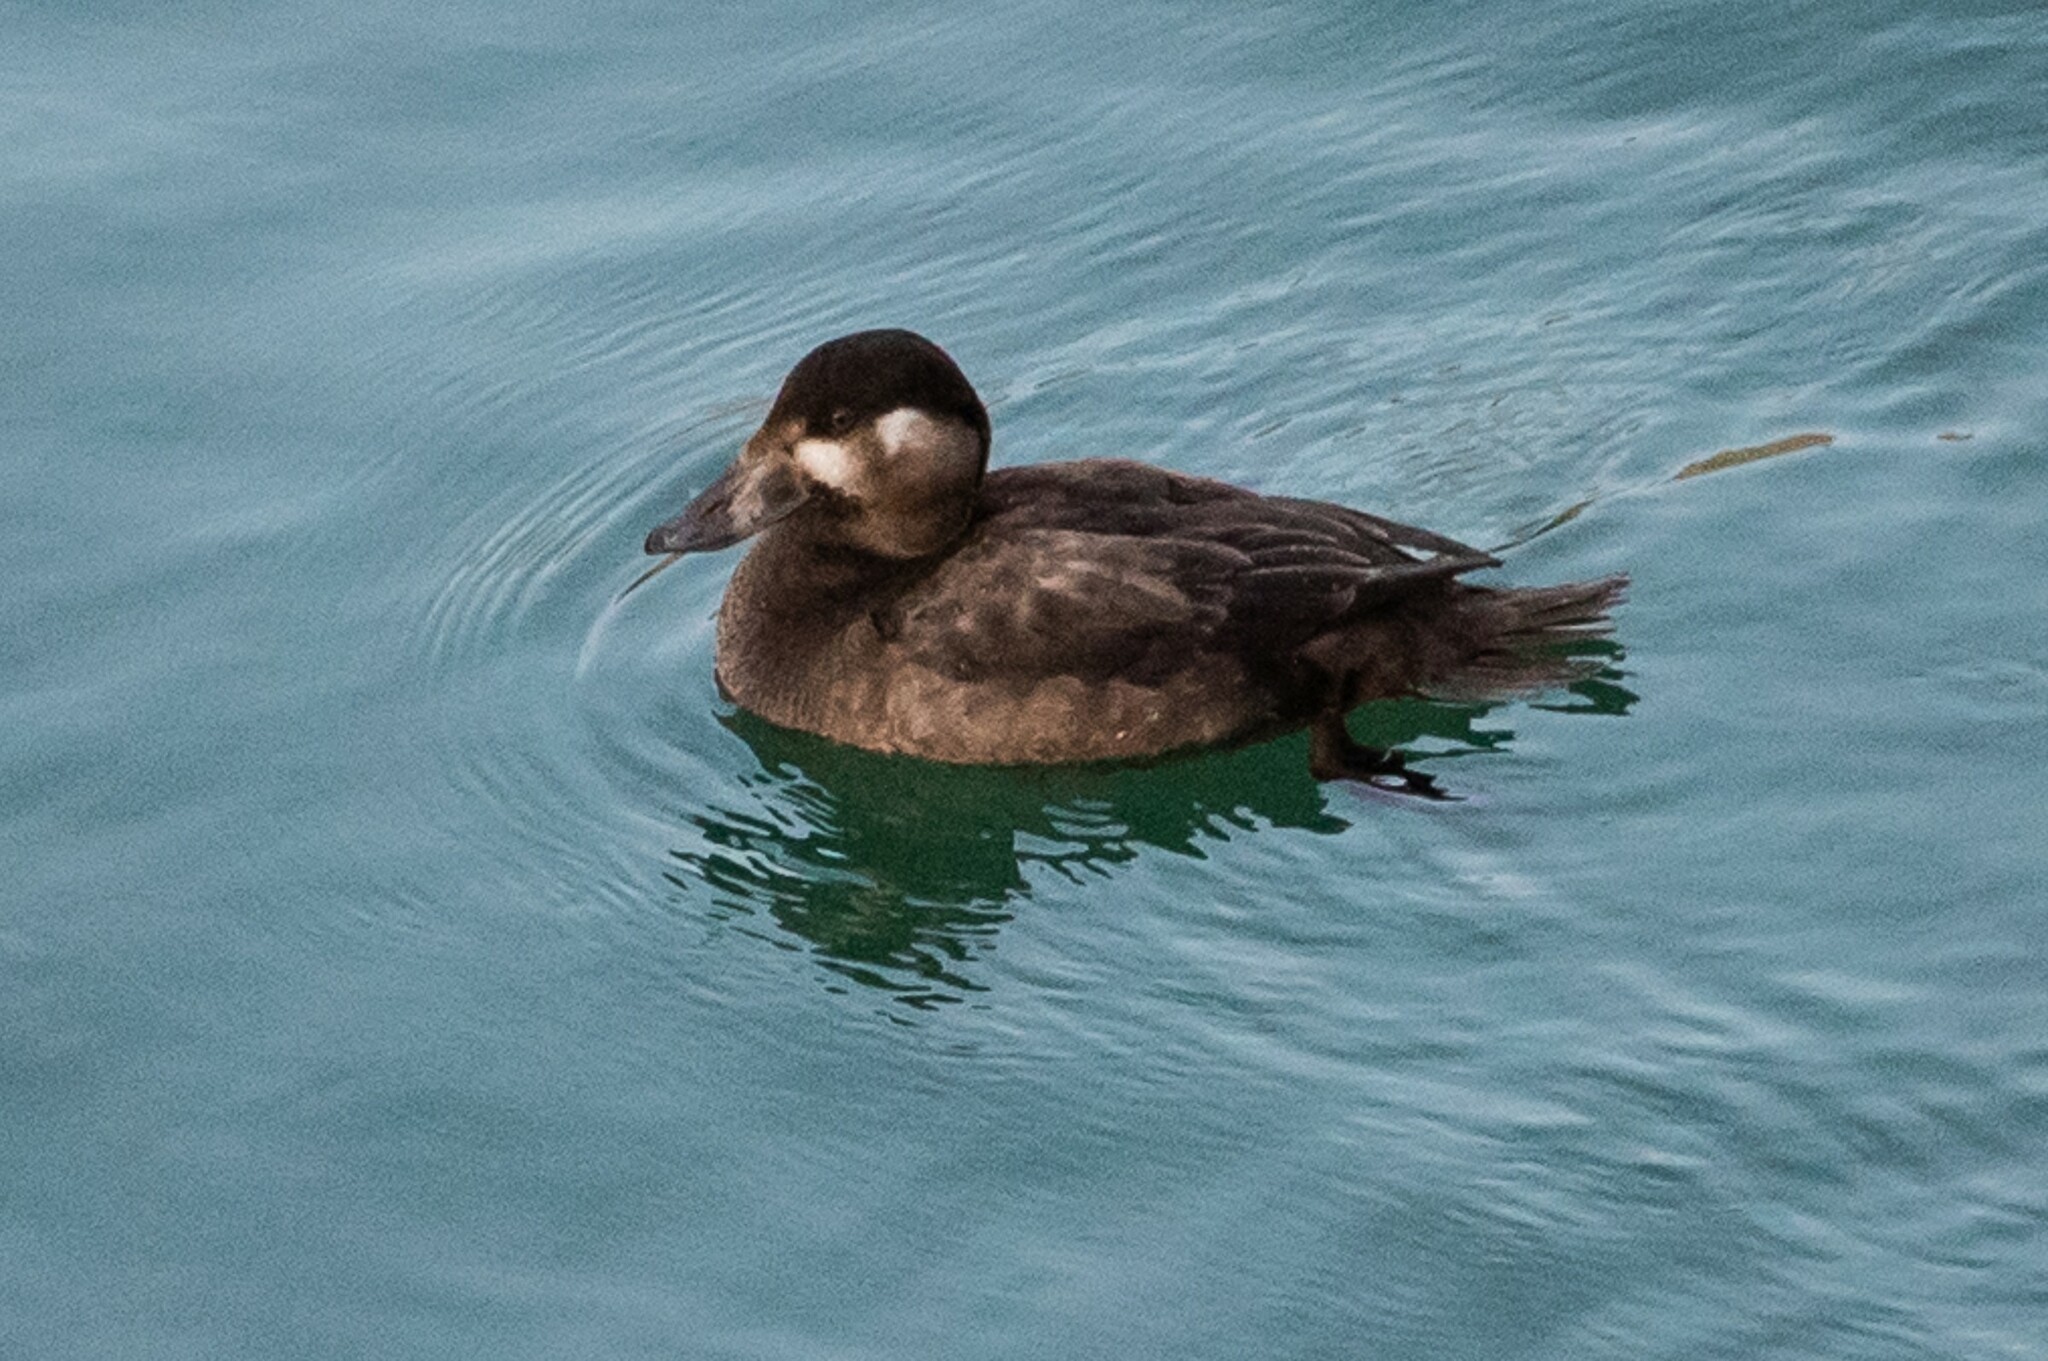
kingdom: Animalia
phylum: Chordata
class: Aves
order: Anseriformes
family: Anatidae
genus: Melanitta
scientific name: Melanitta perspicillata
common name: Surf scoter
